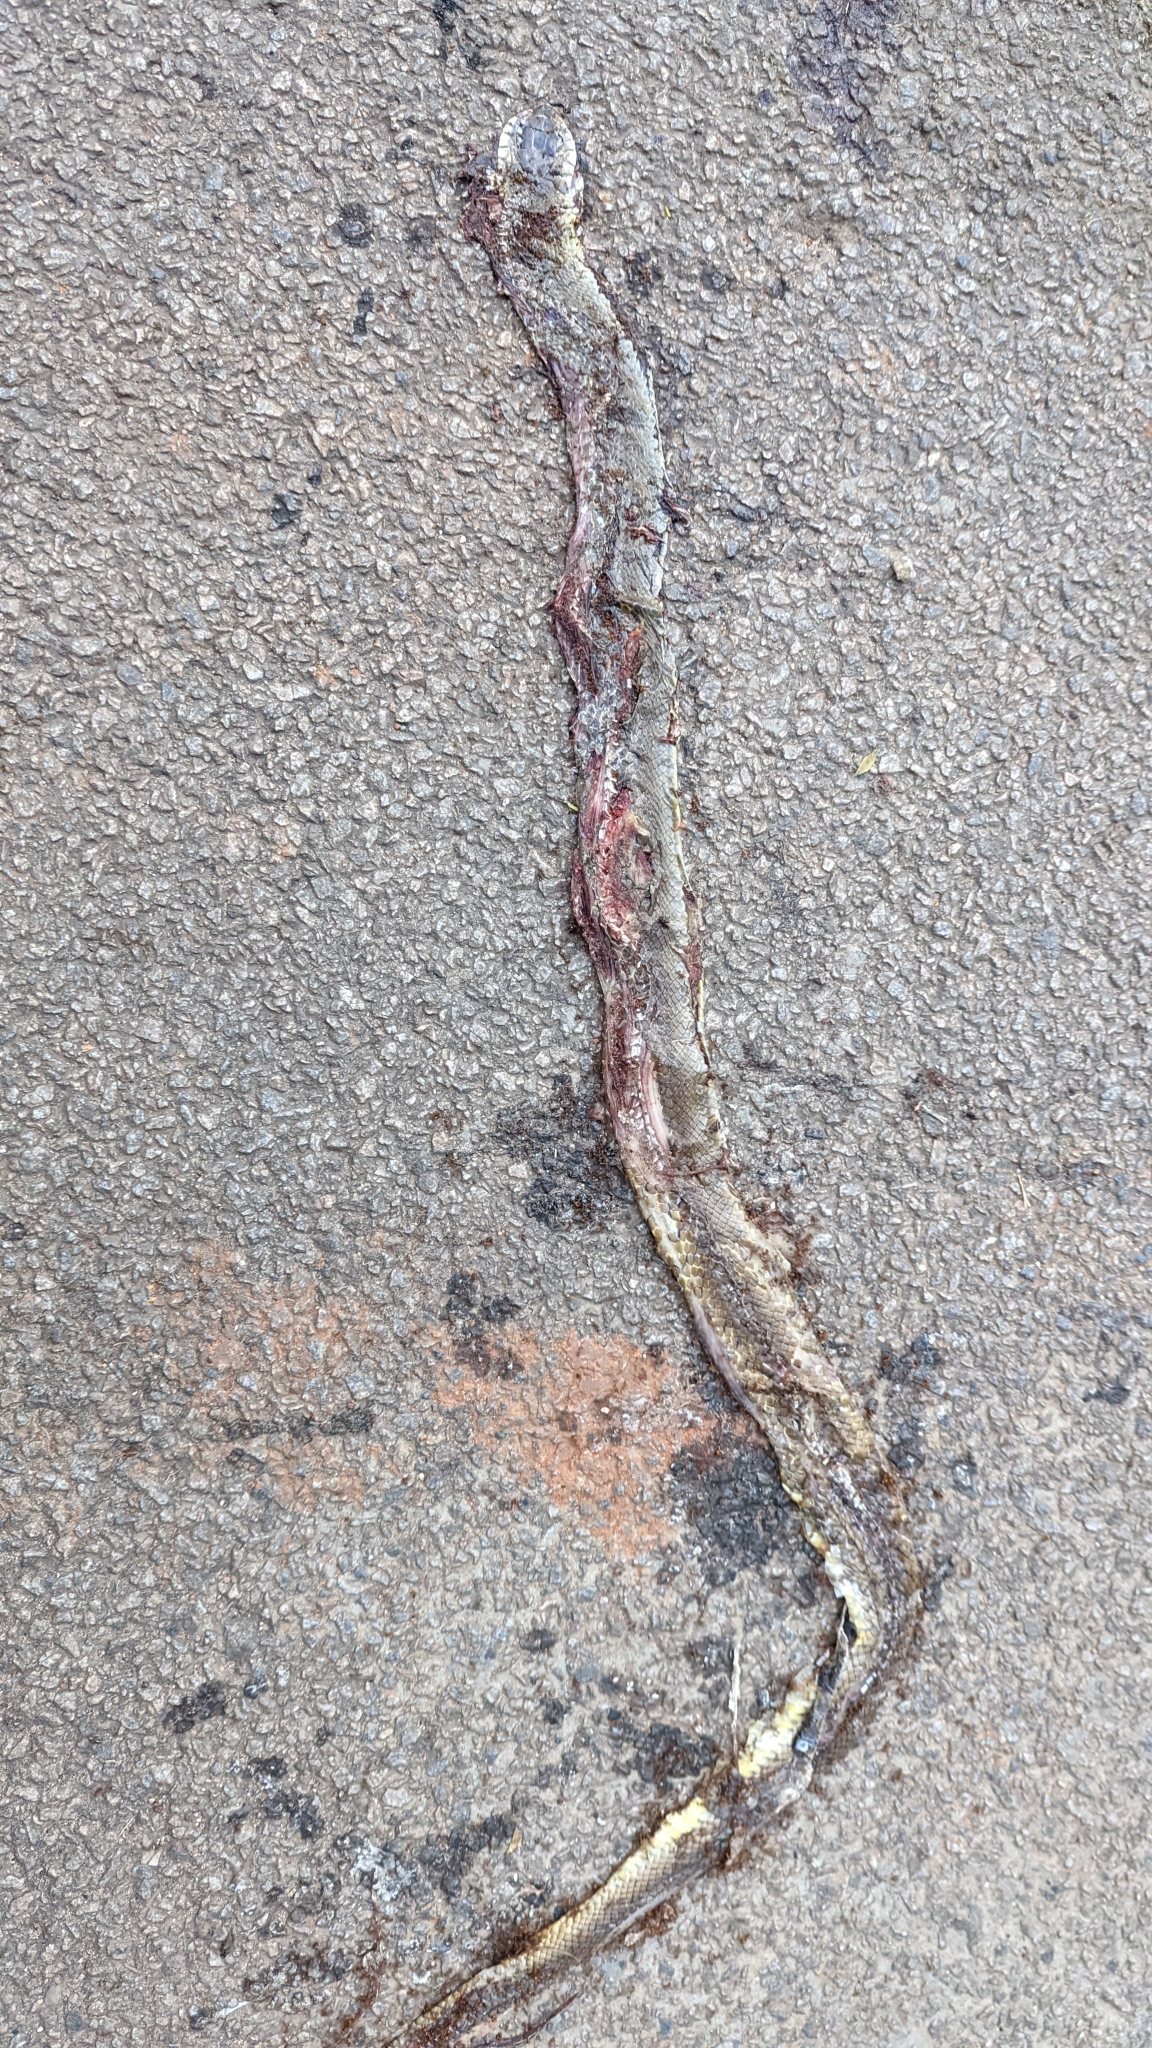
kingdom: Animalia
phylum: Chordata
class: Squamata
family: Colubridae
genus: Ptyas
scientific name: Ptyas mucosa
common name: Oriental ratsnake
